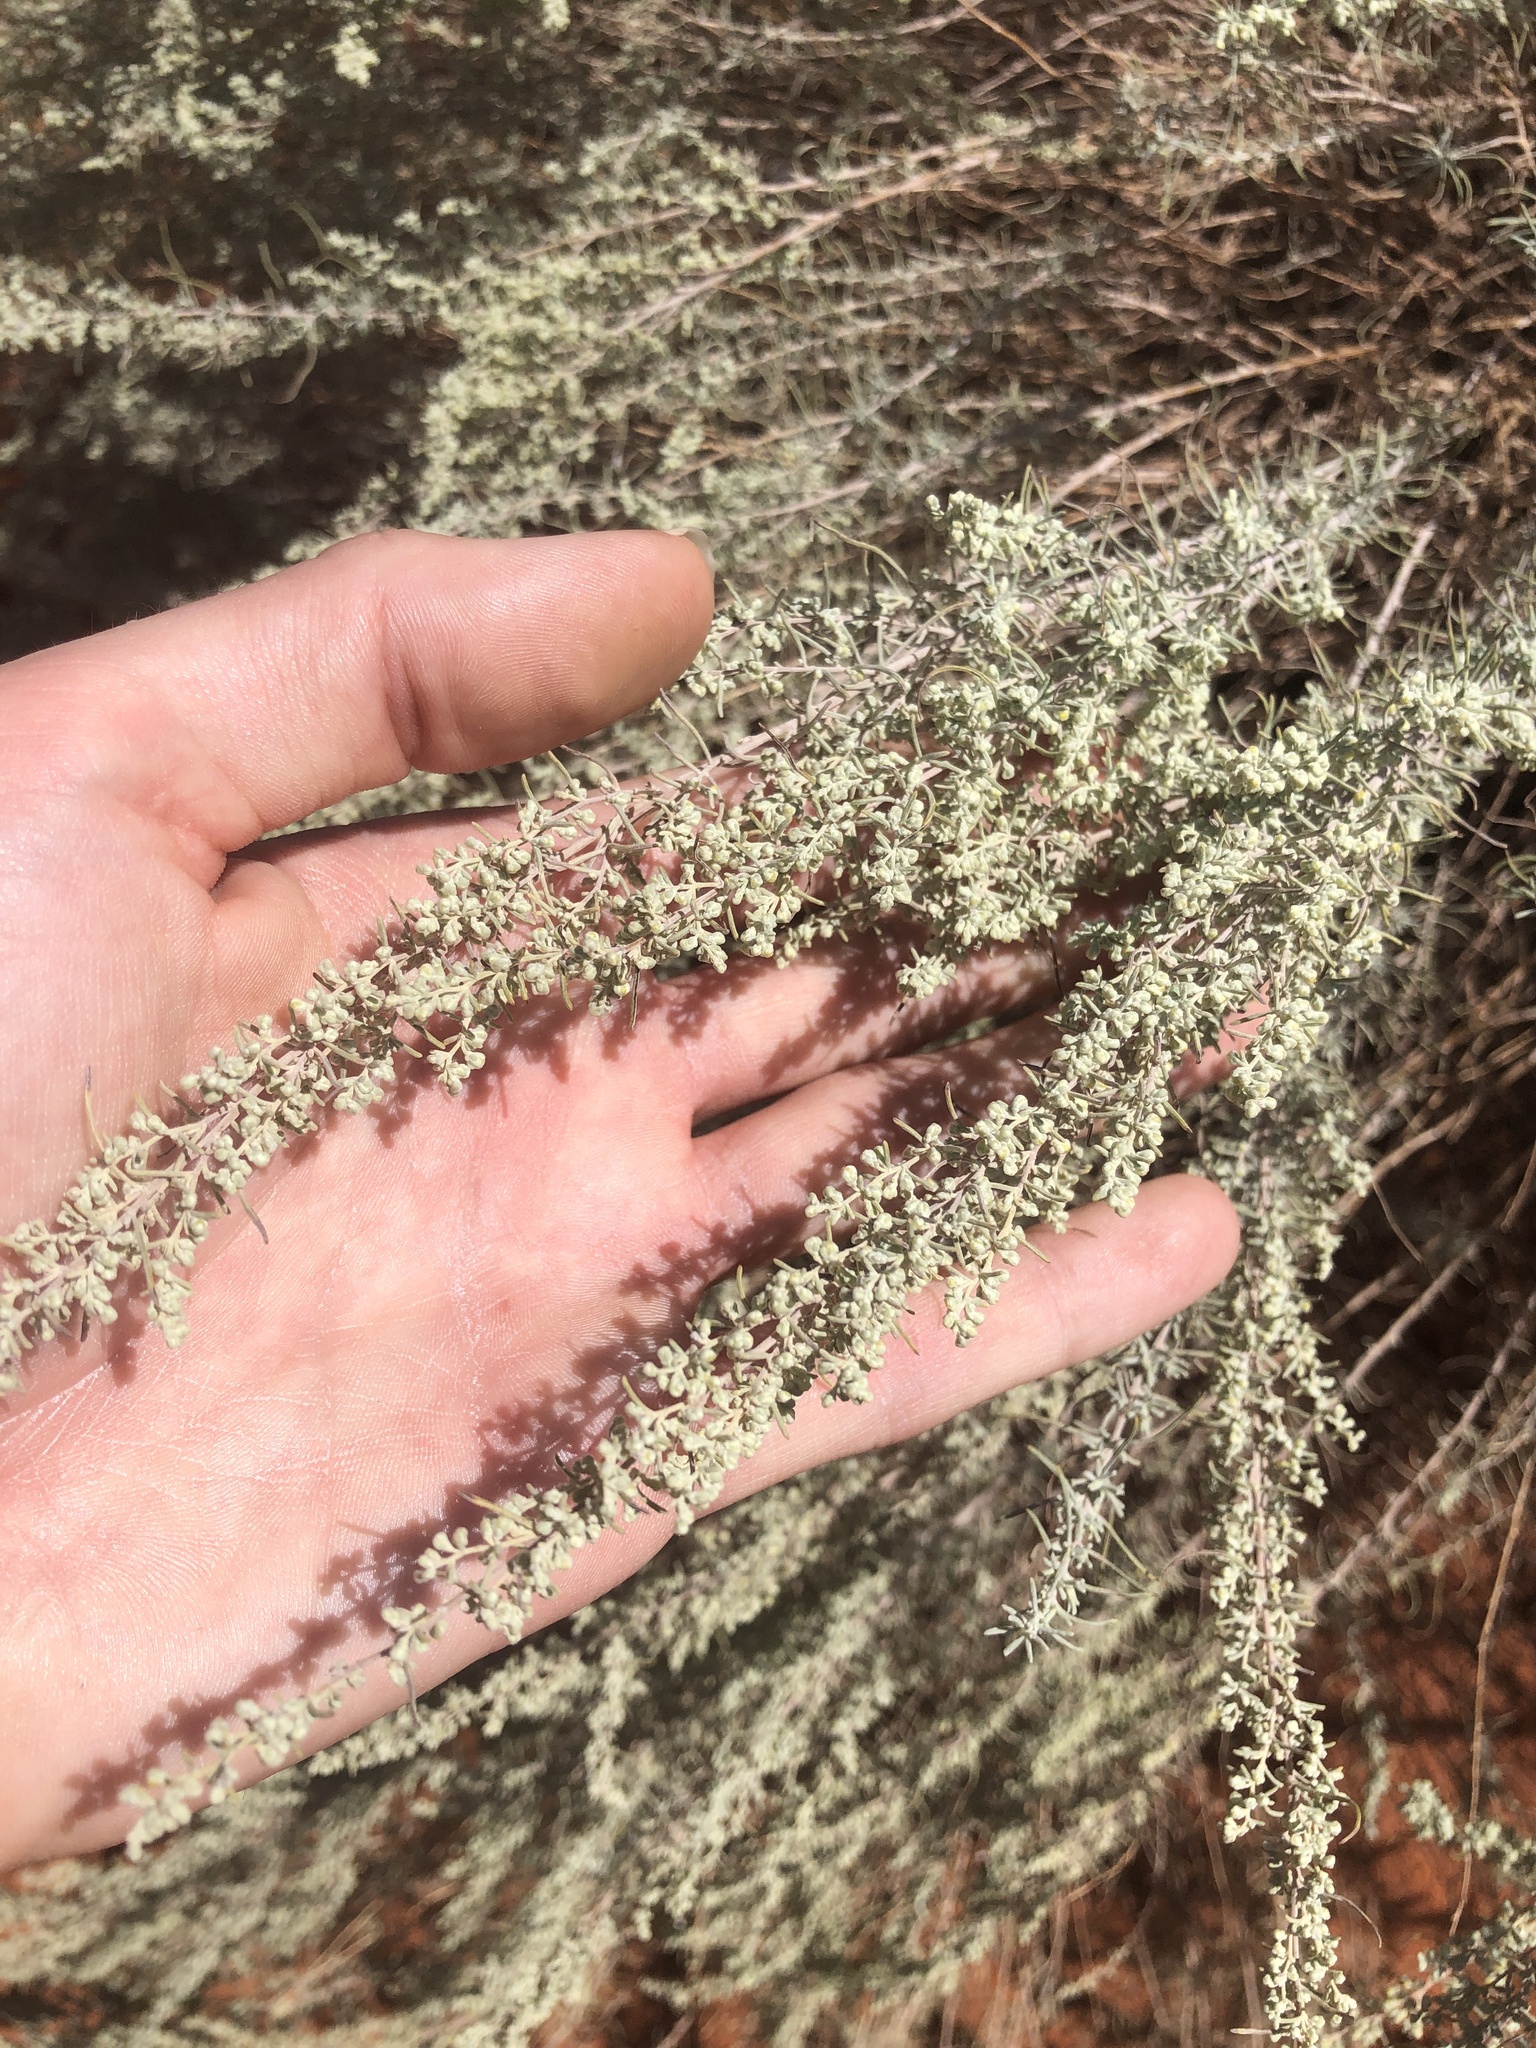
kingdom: Plantae
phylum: Tracheophyta
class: Magnoliopsida
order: Asterales
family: Asteraceae
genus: Artemisia
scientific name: Artemisia filifolia
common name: Sand-sage
